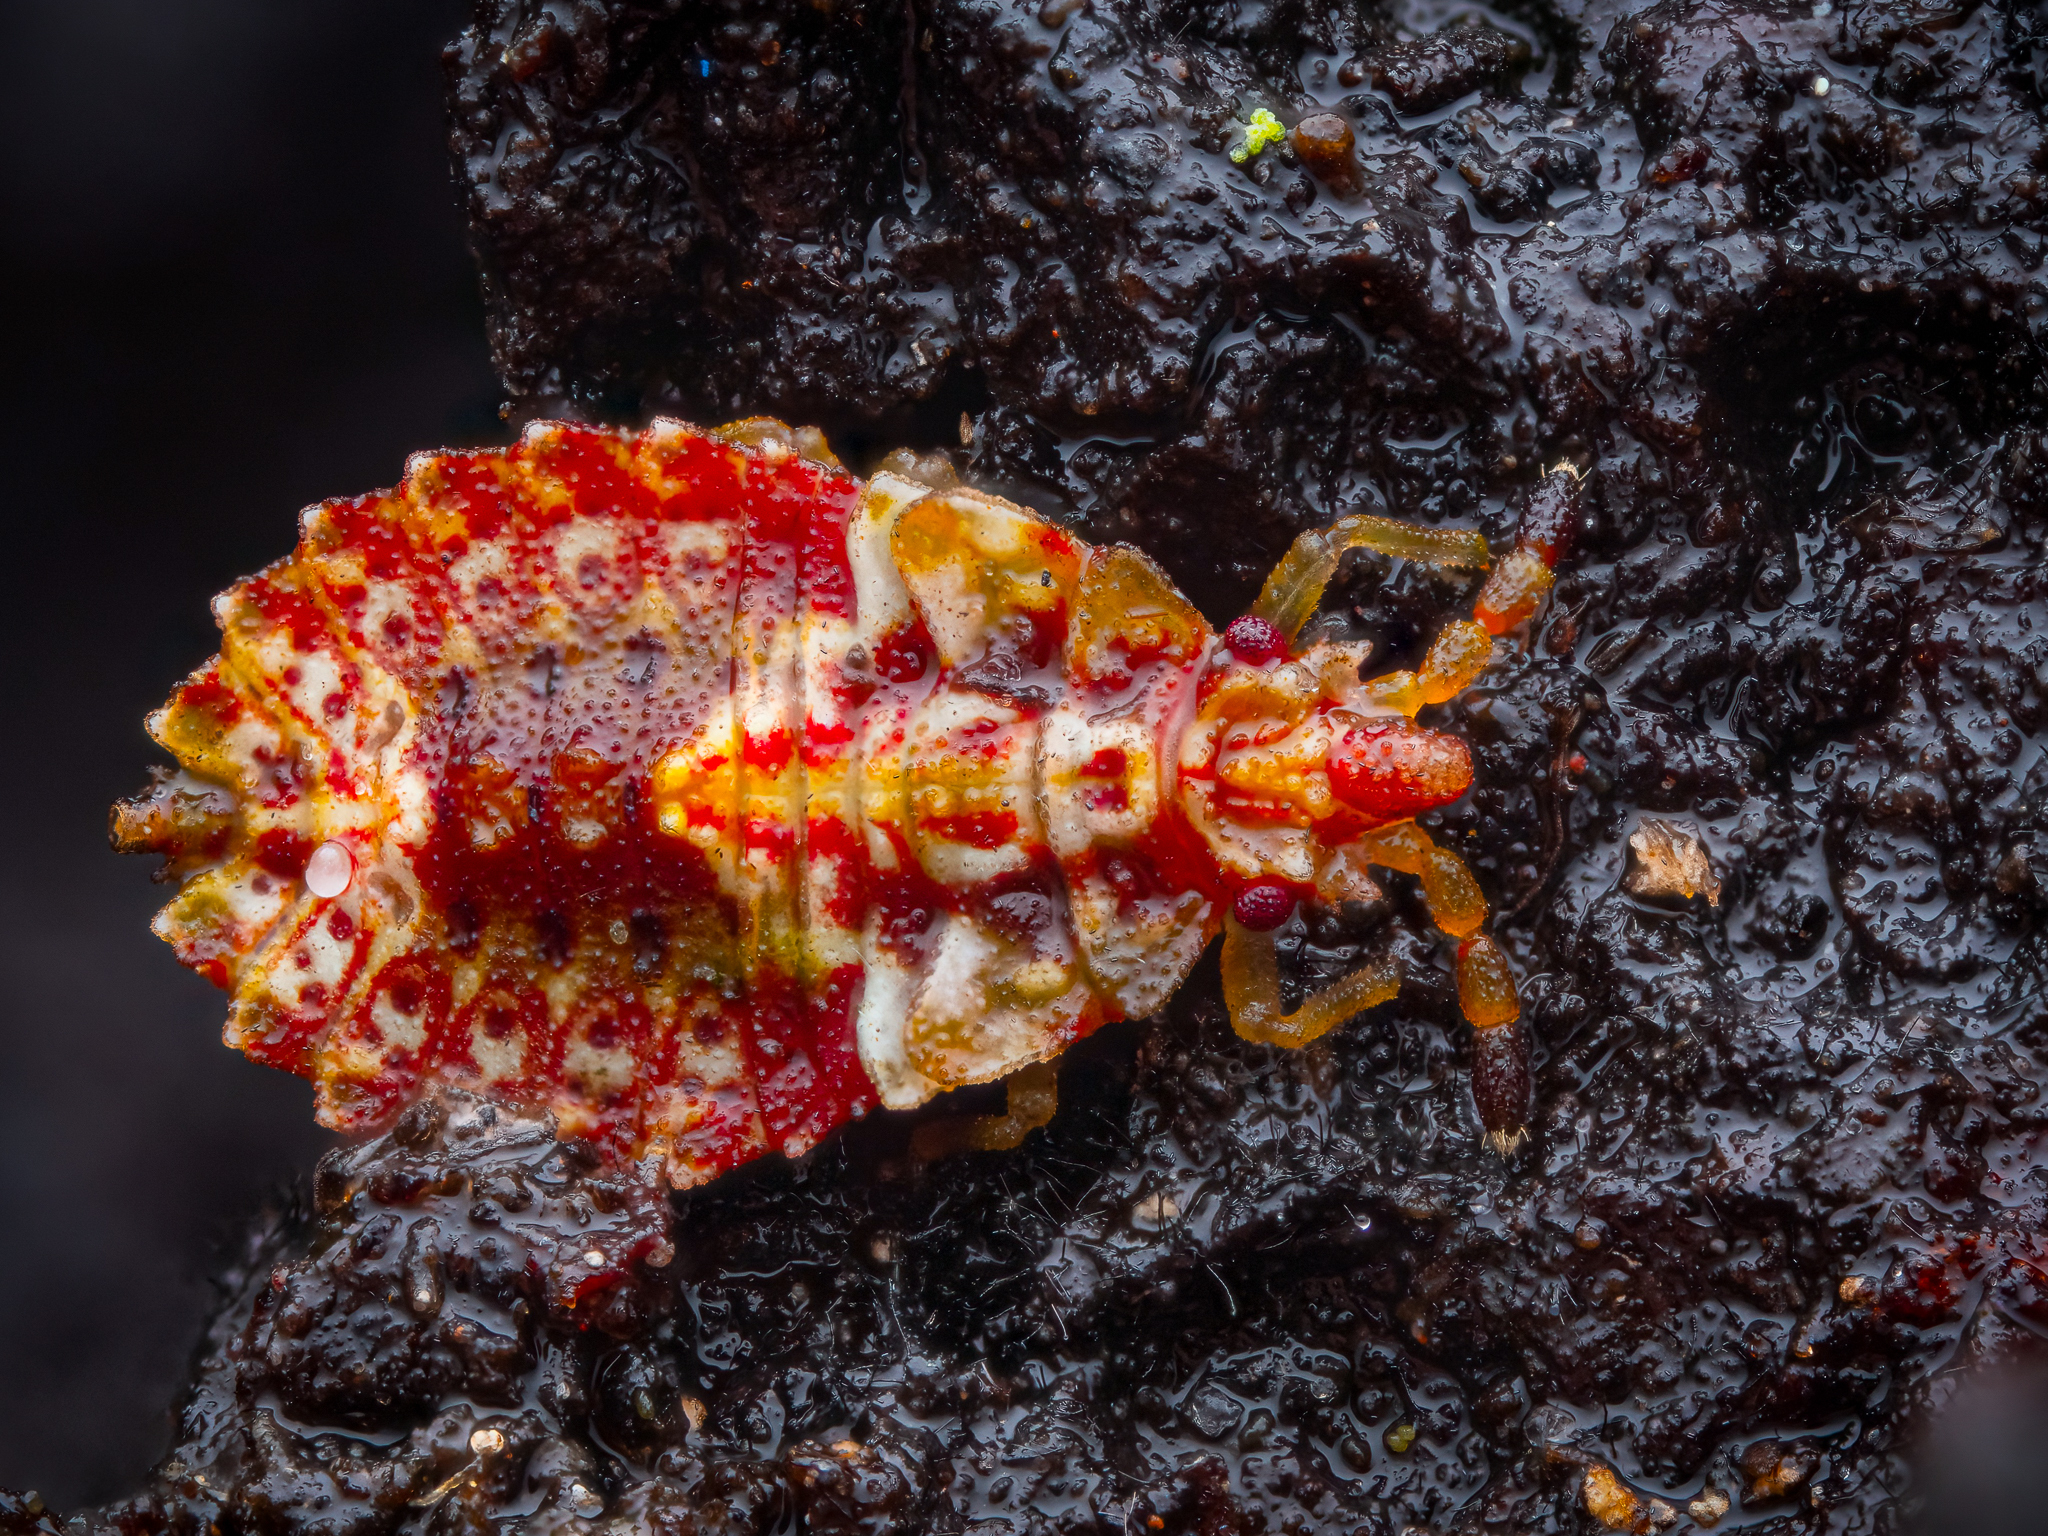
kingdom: Animalia
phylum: Arthropoda
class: Insecta
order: Hemiptera
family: Aradidae
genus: Aradus
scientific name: Aradus depressus
